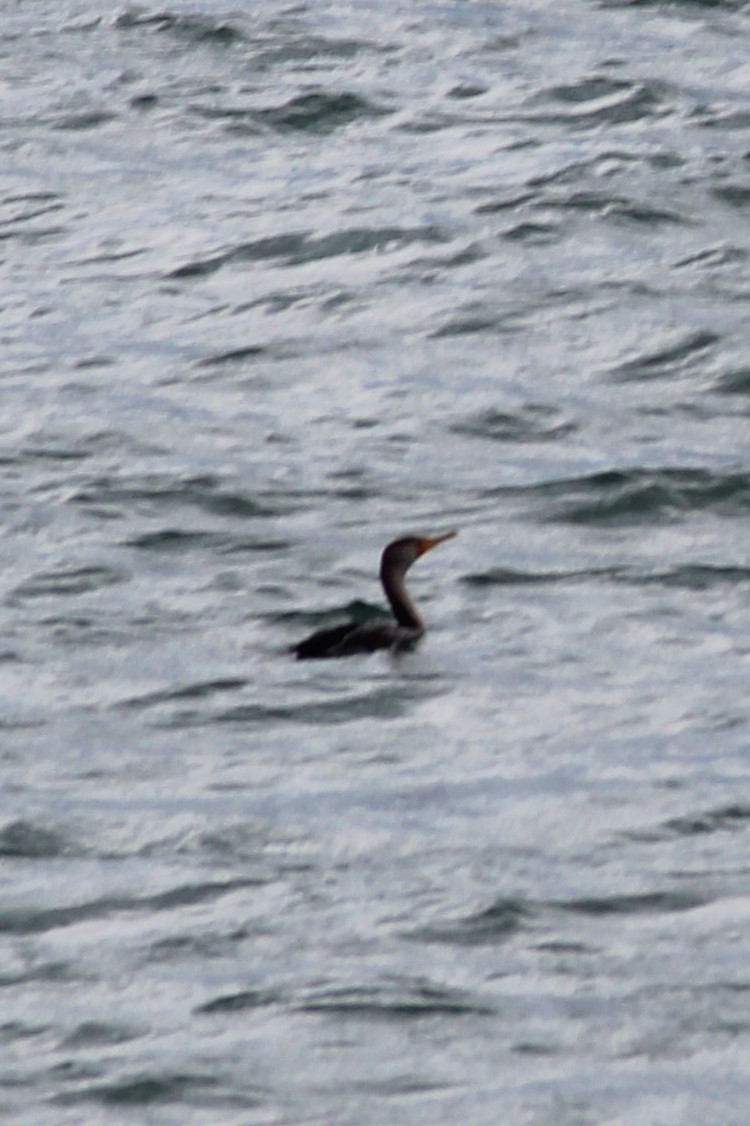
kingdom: Animalia
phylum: Chordata
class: Aves
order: Suliformes
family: Phalacrocoracidae
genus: Phalacrocorax
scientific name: Phalacrocorax auritus
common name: Double-crested cormorant
